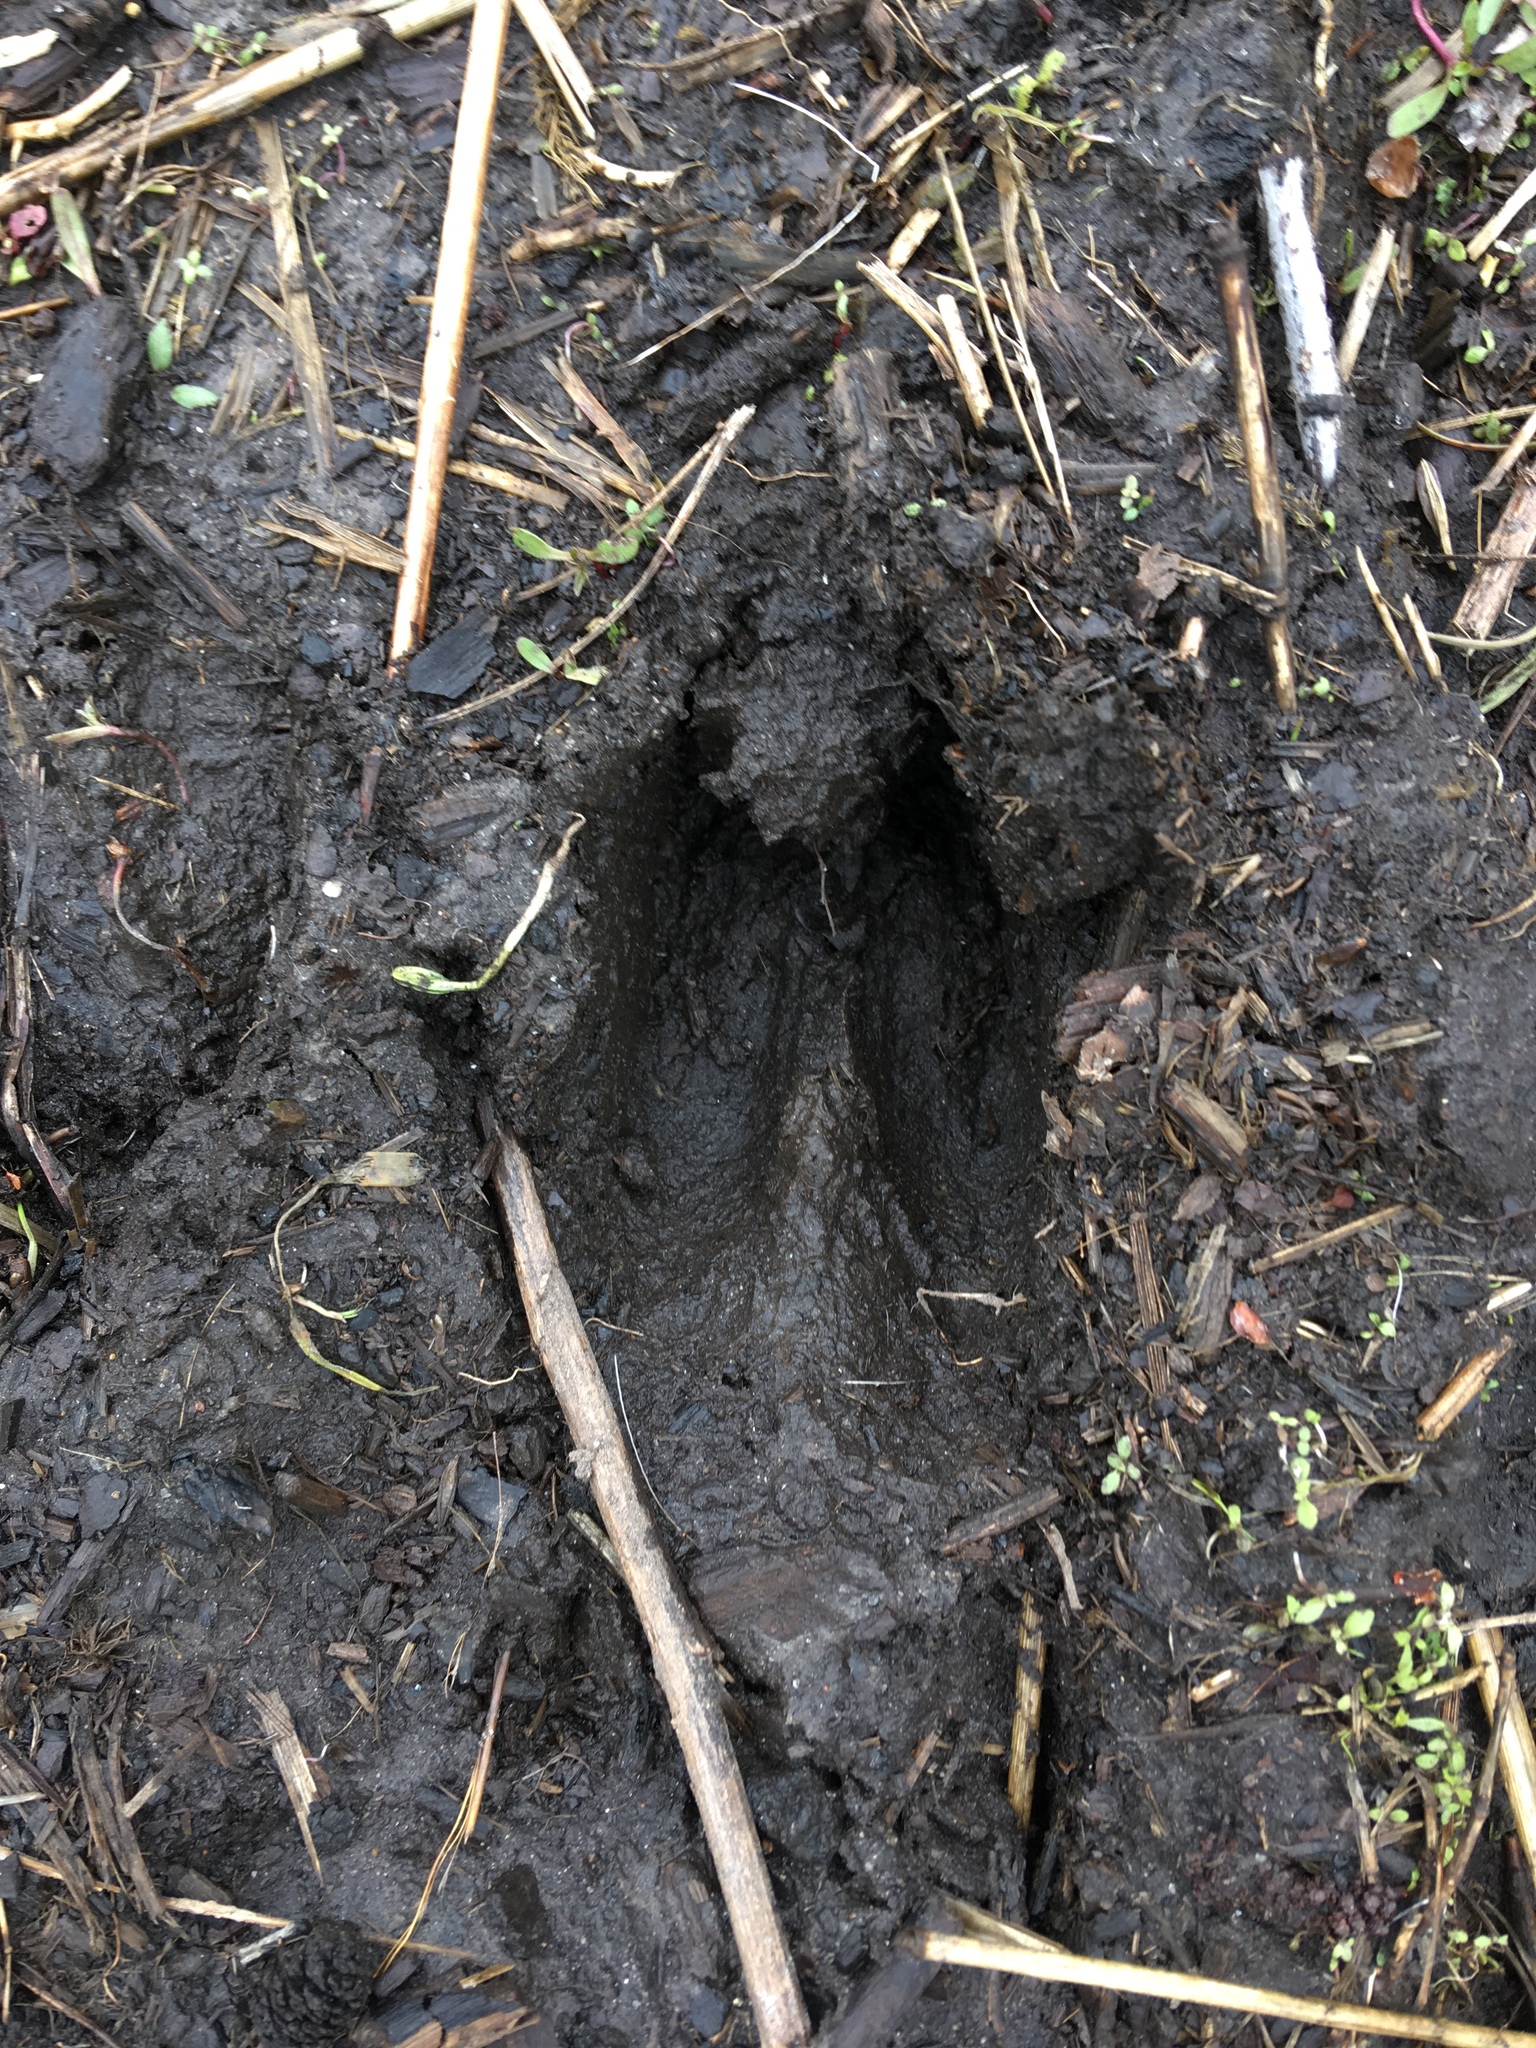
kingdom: Animalia
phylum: Chordata
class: Mammalia
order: Artiodactyla
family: Cervidae
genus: Odocoileus
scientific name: Odocoileus virginianus
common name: White-tailed deer
